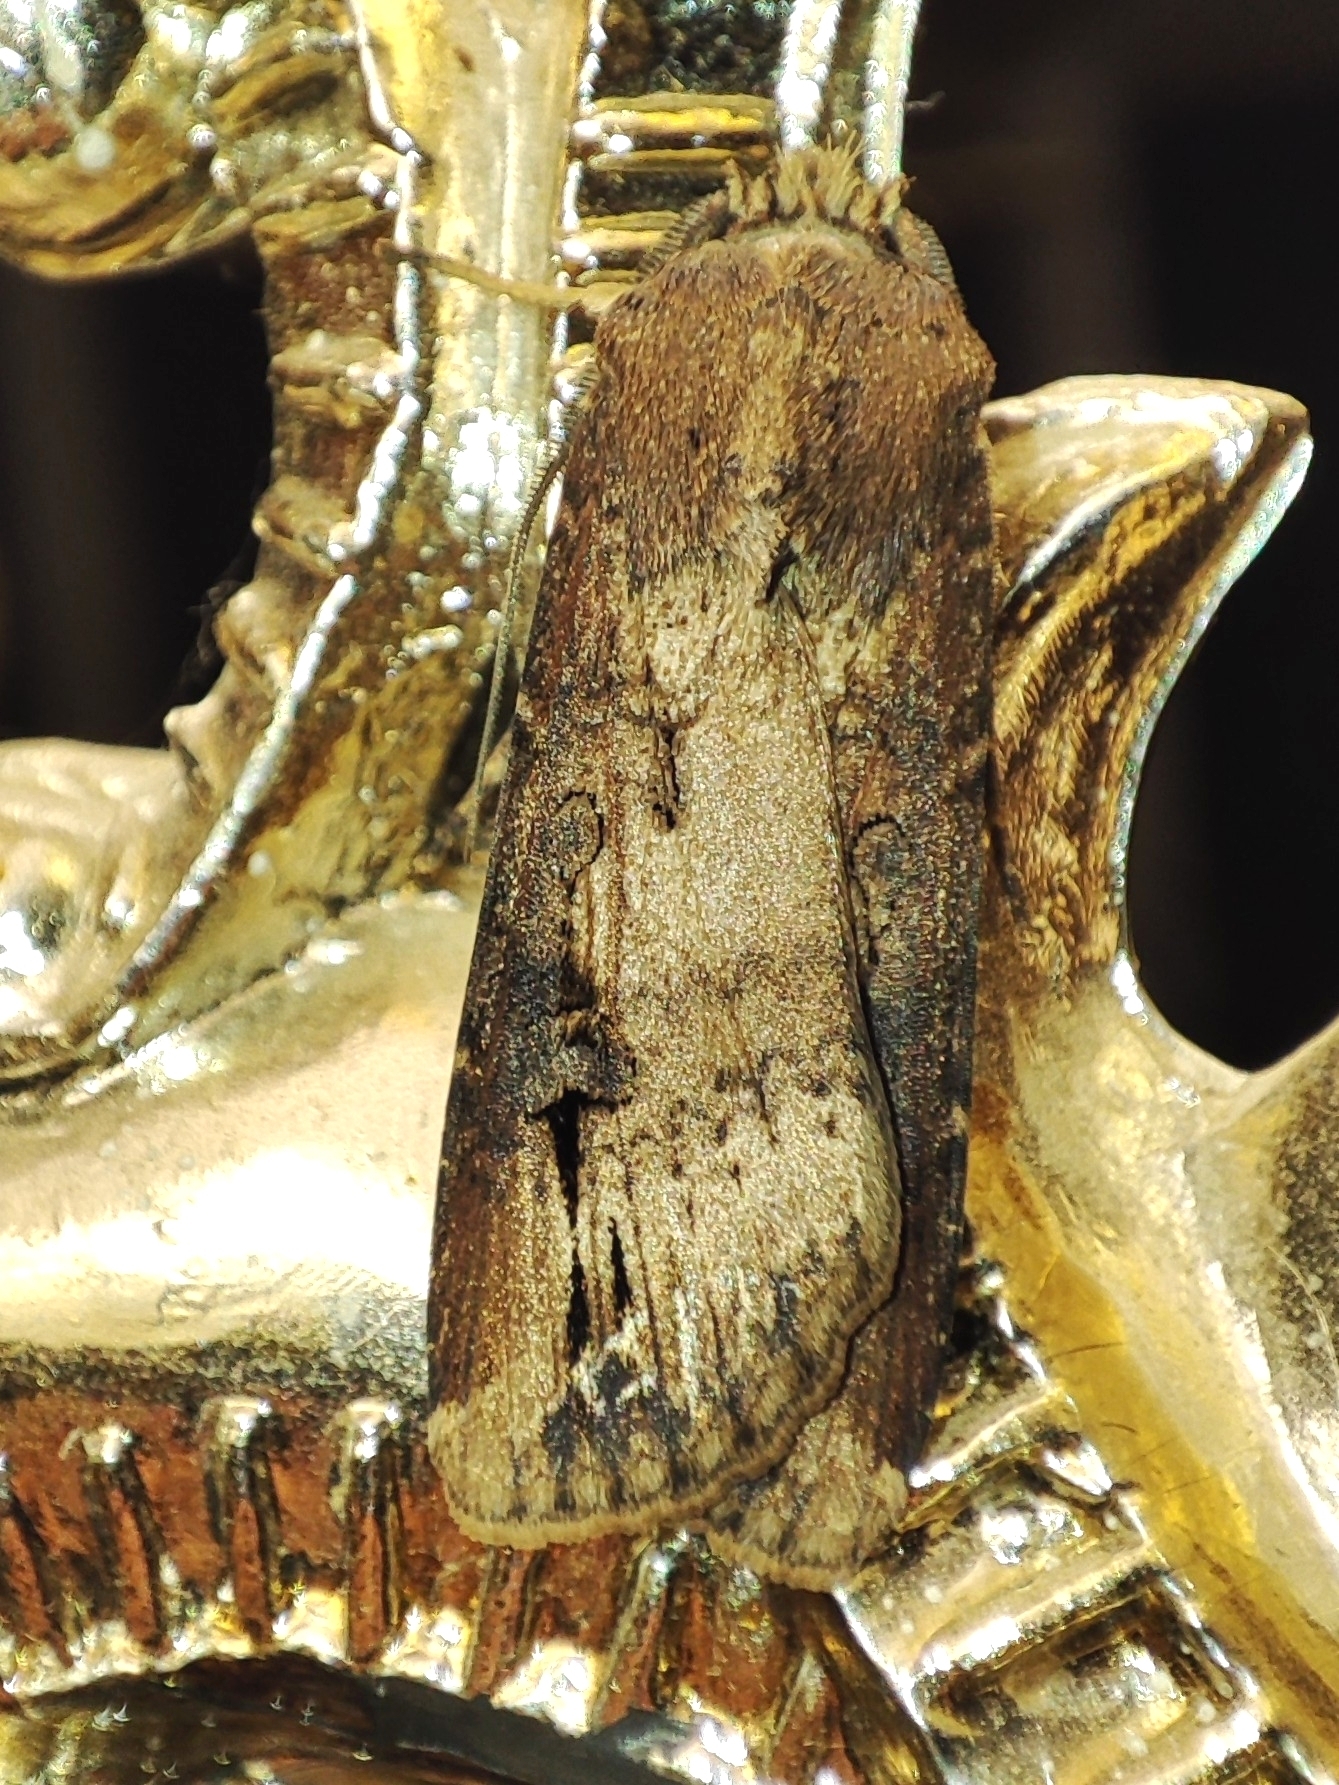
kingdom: Animalia
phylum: Arthropoda
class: Insecta
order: Lepidoptera
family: Noctuidae
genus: Agrotis
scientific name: Agrotis ipsilon
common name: Dark sword-grass
